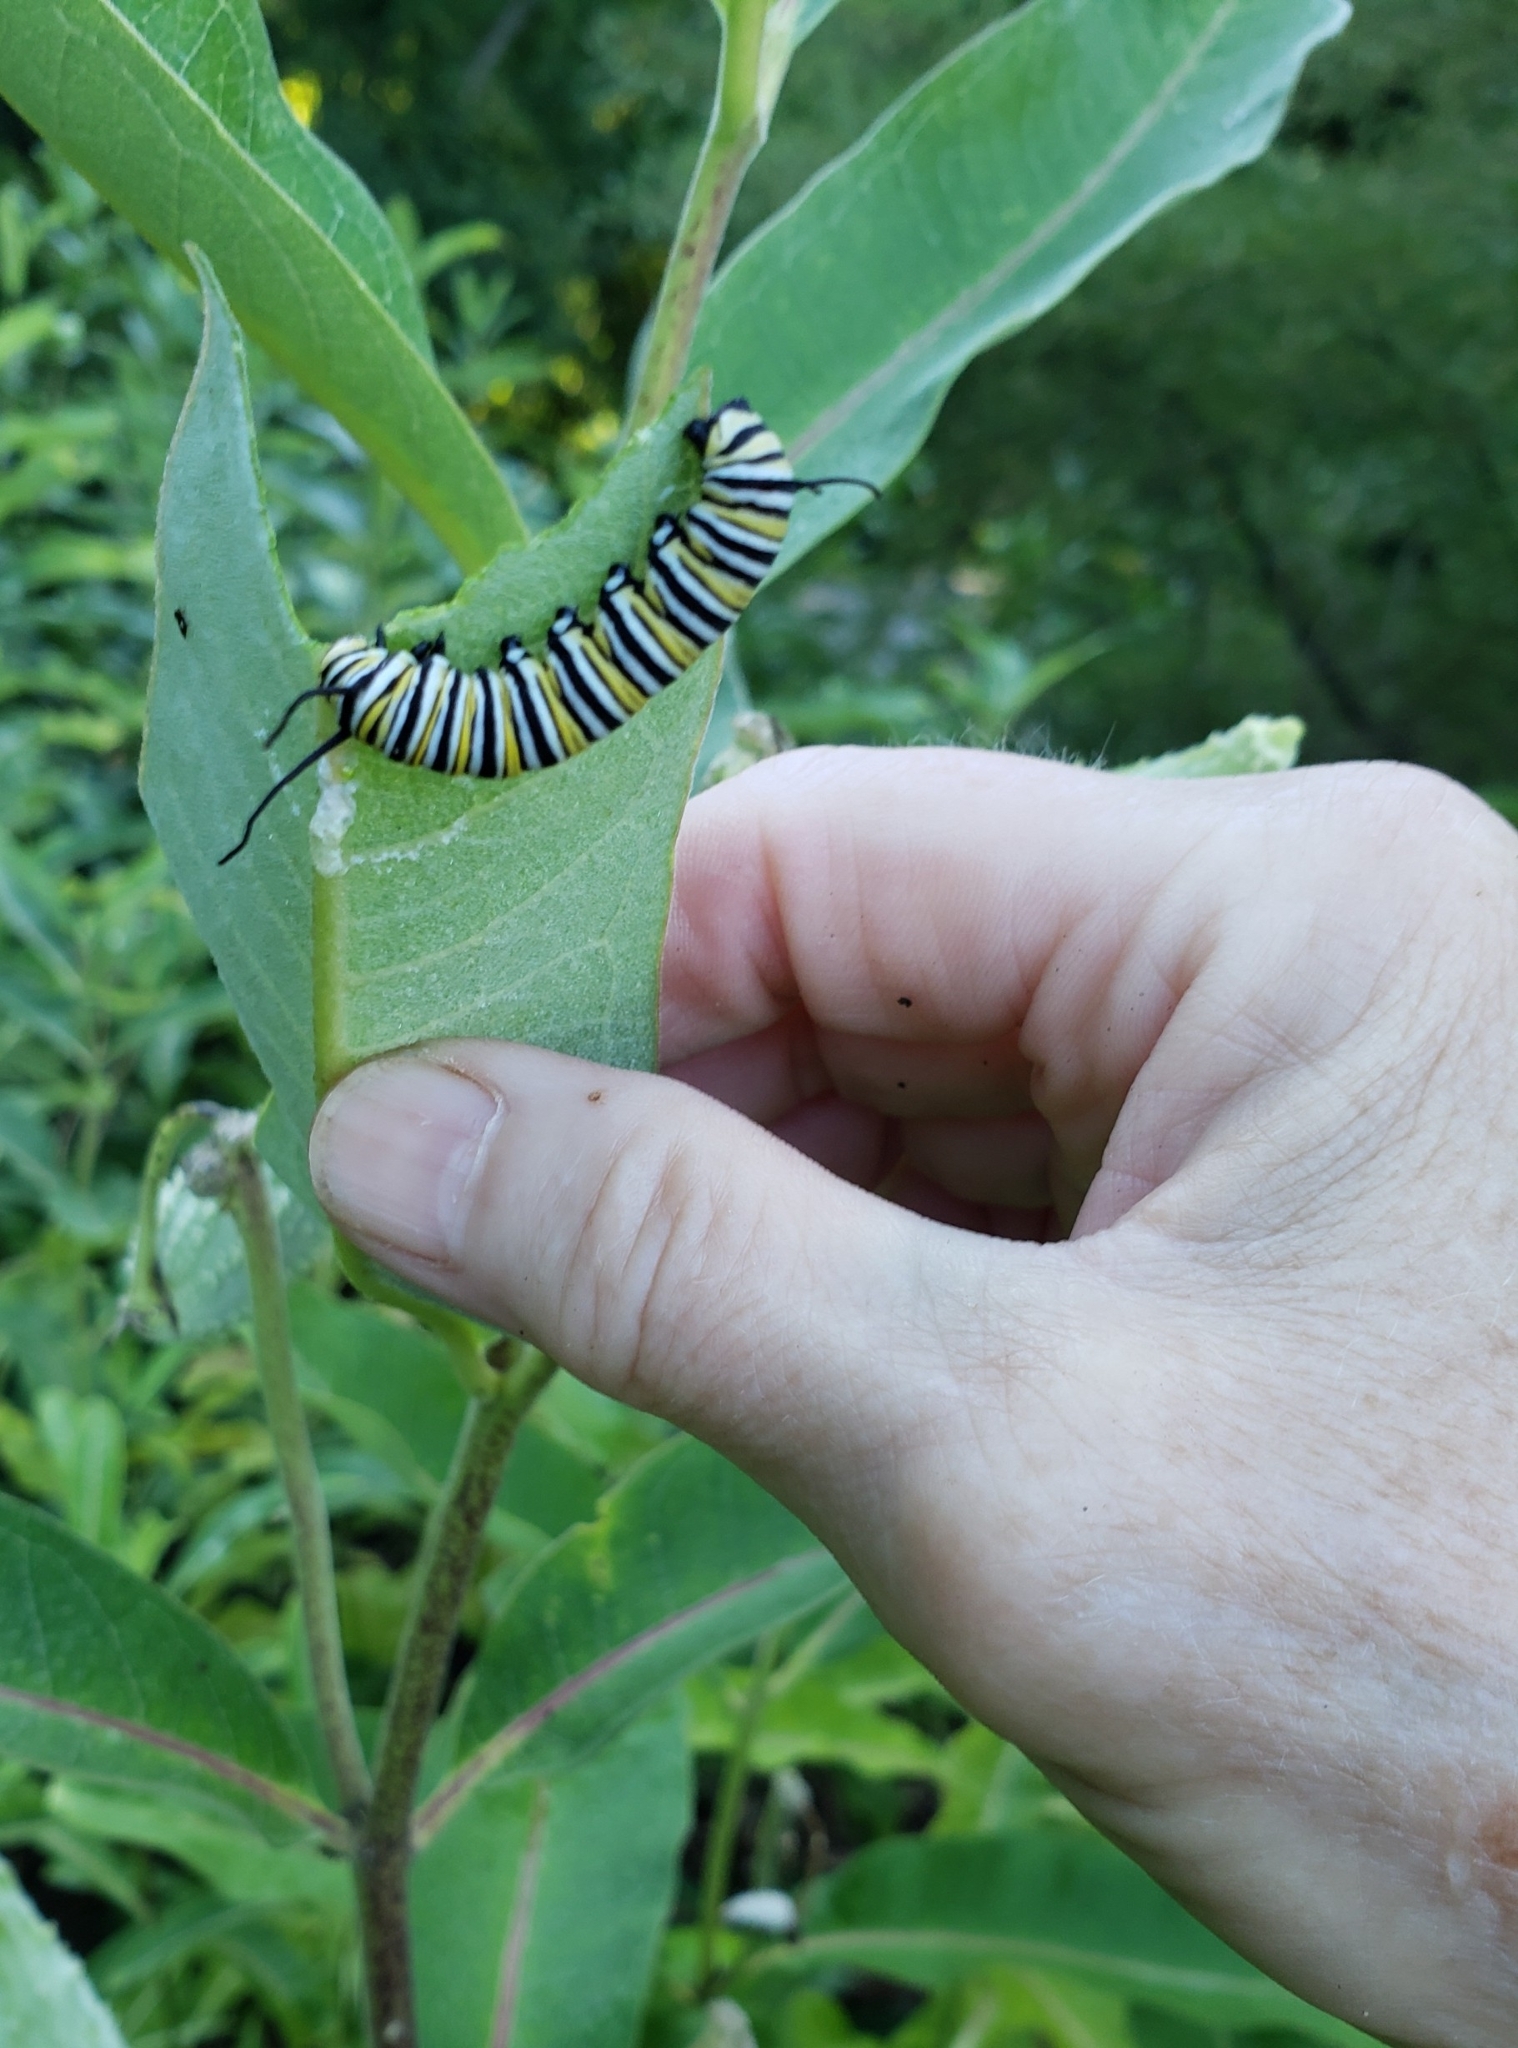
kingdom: Animalia
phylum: Arthropoda
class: Insecta
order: Lepidoptera
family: Nymphalidae
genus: Danaus
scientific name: Danaus plexippus
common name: Monarch
